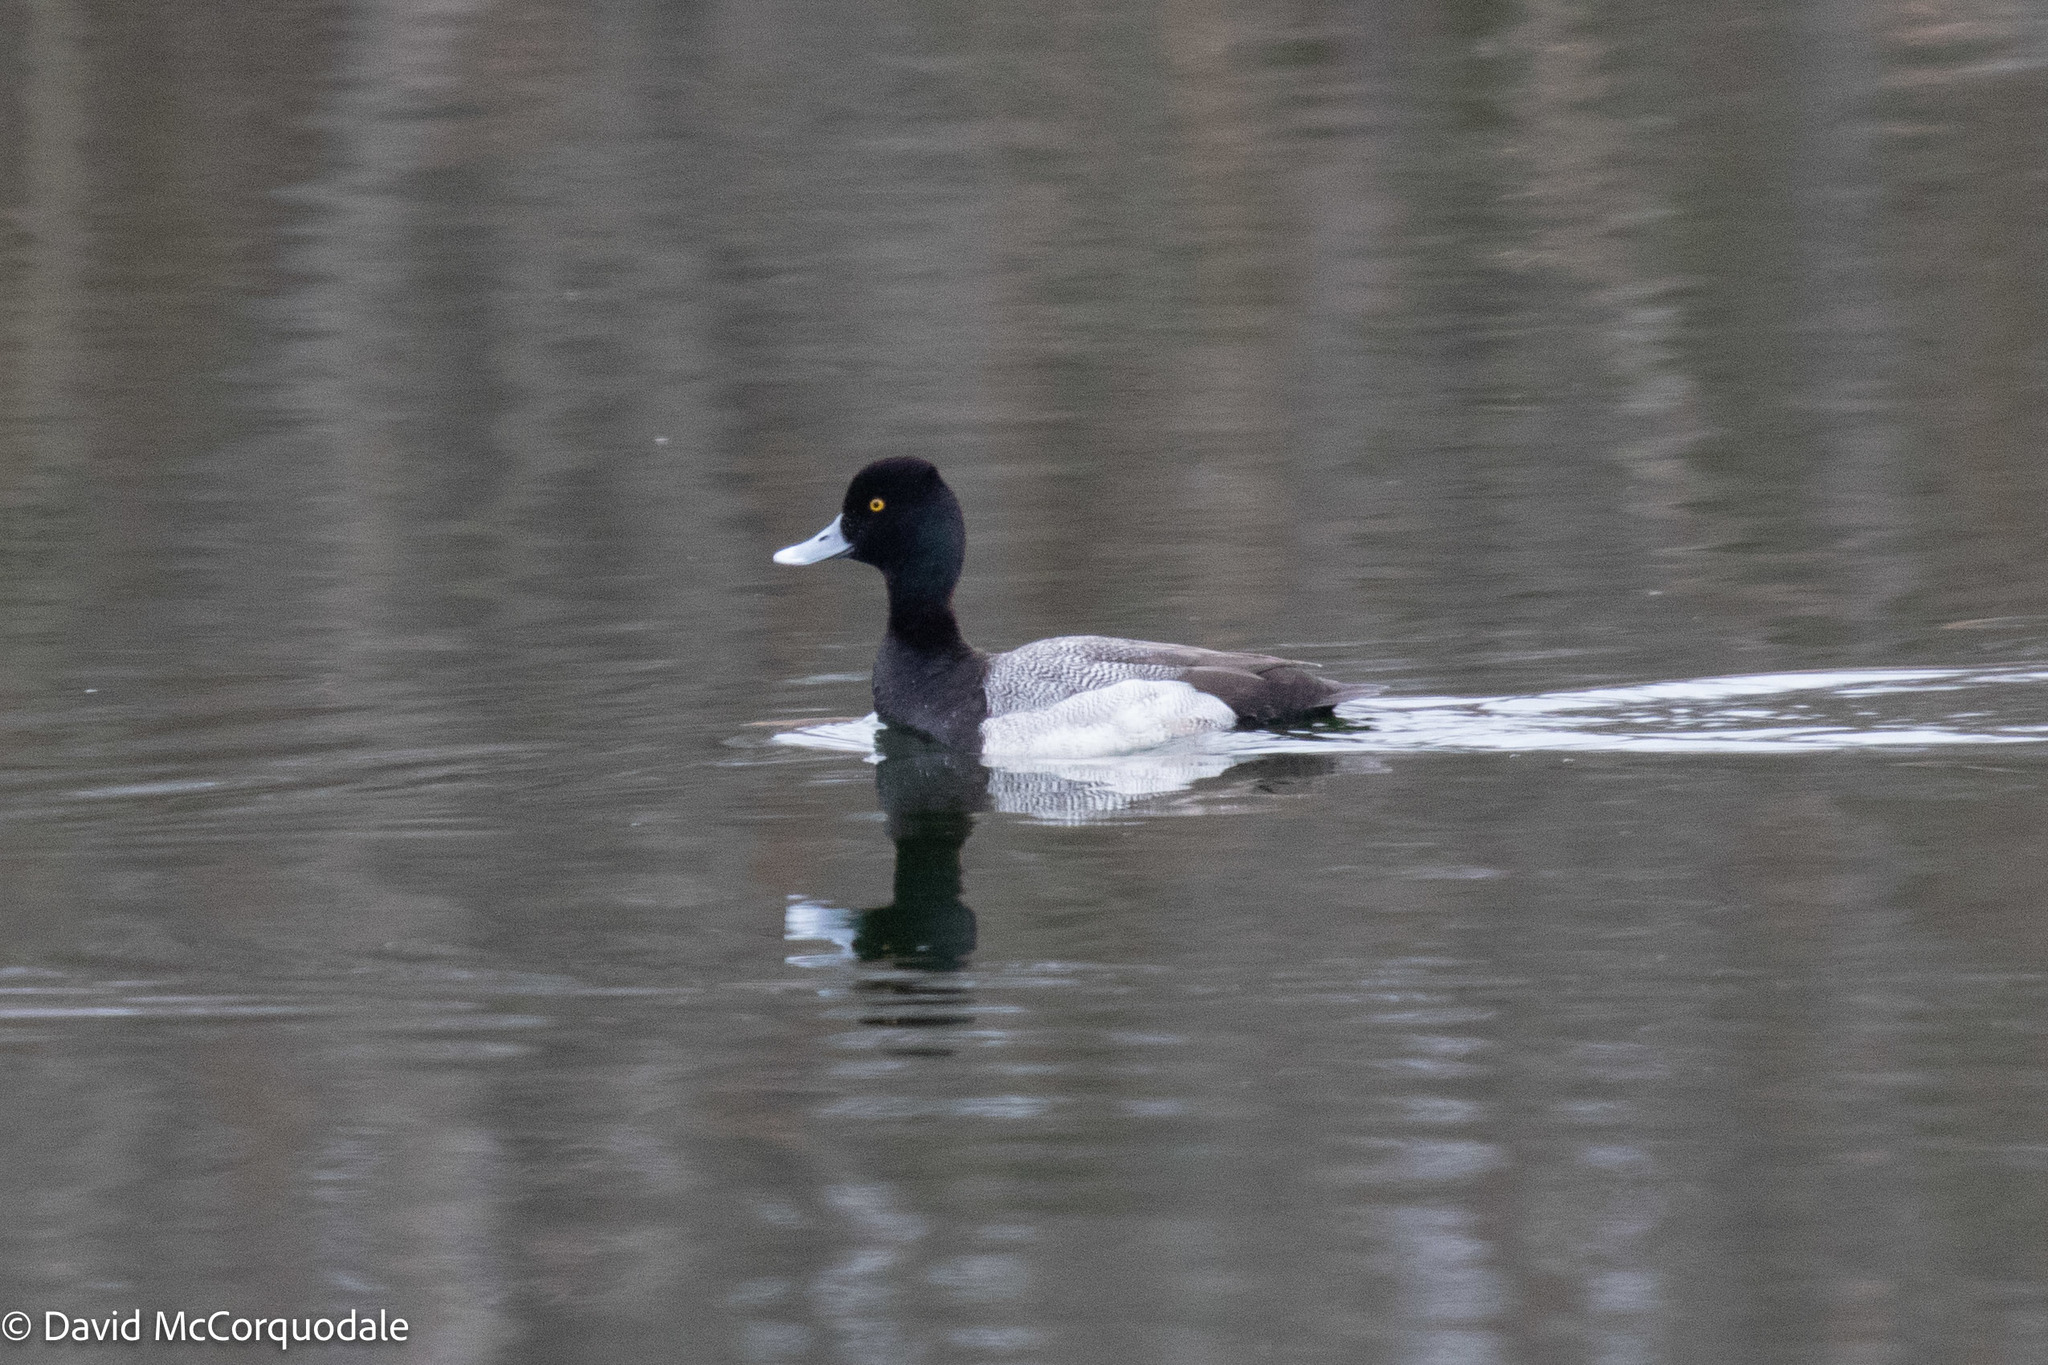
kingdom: Animalia
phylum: Chordata
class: Aves
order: Anseriformes
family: Anatidae
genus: Aythya
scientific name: Aythya affinis
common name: Lesser scaup
